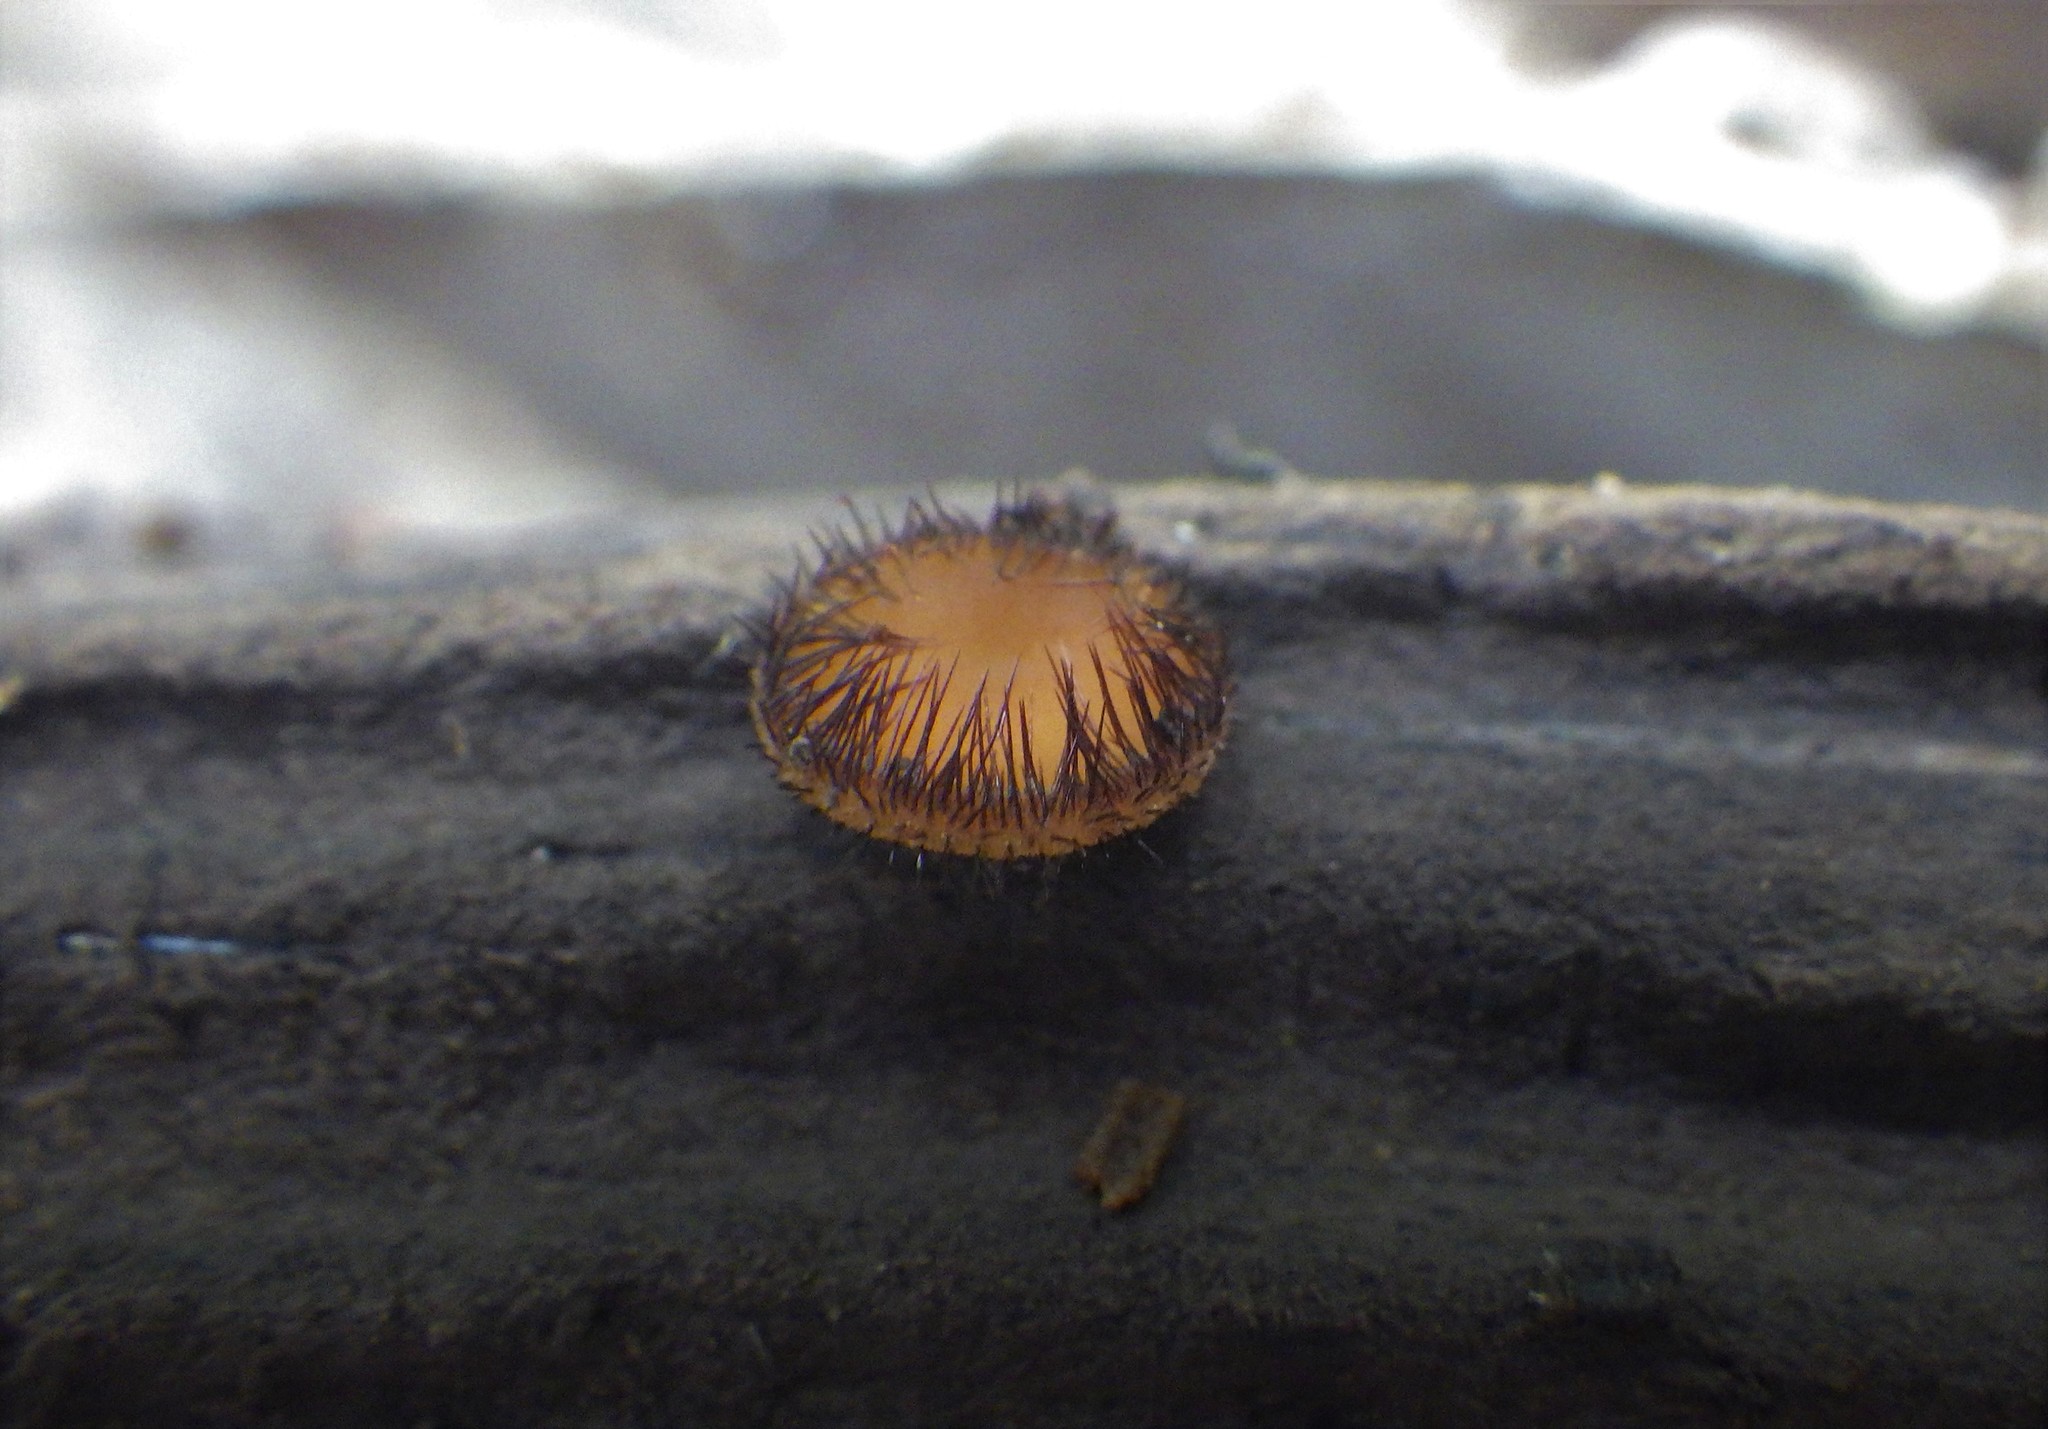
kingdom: Fungi
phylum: Ascomycota
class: Pezizomycetes
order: Pezizales
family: Pyronemataceae
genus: Scutellinia
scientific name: Scutellinia
